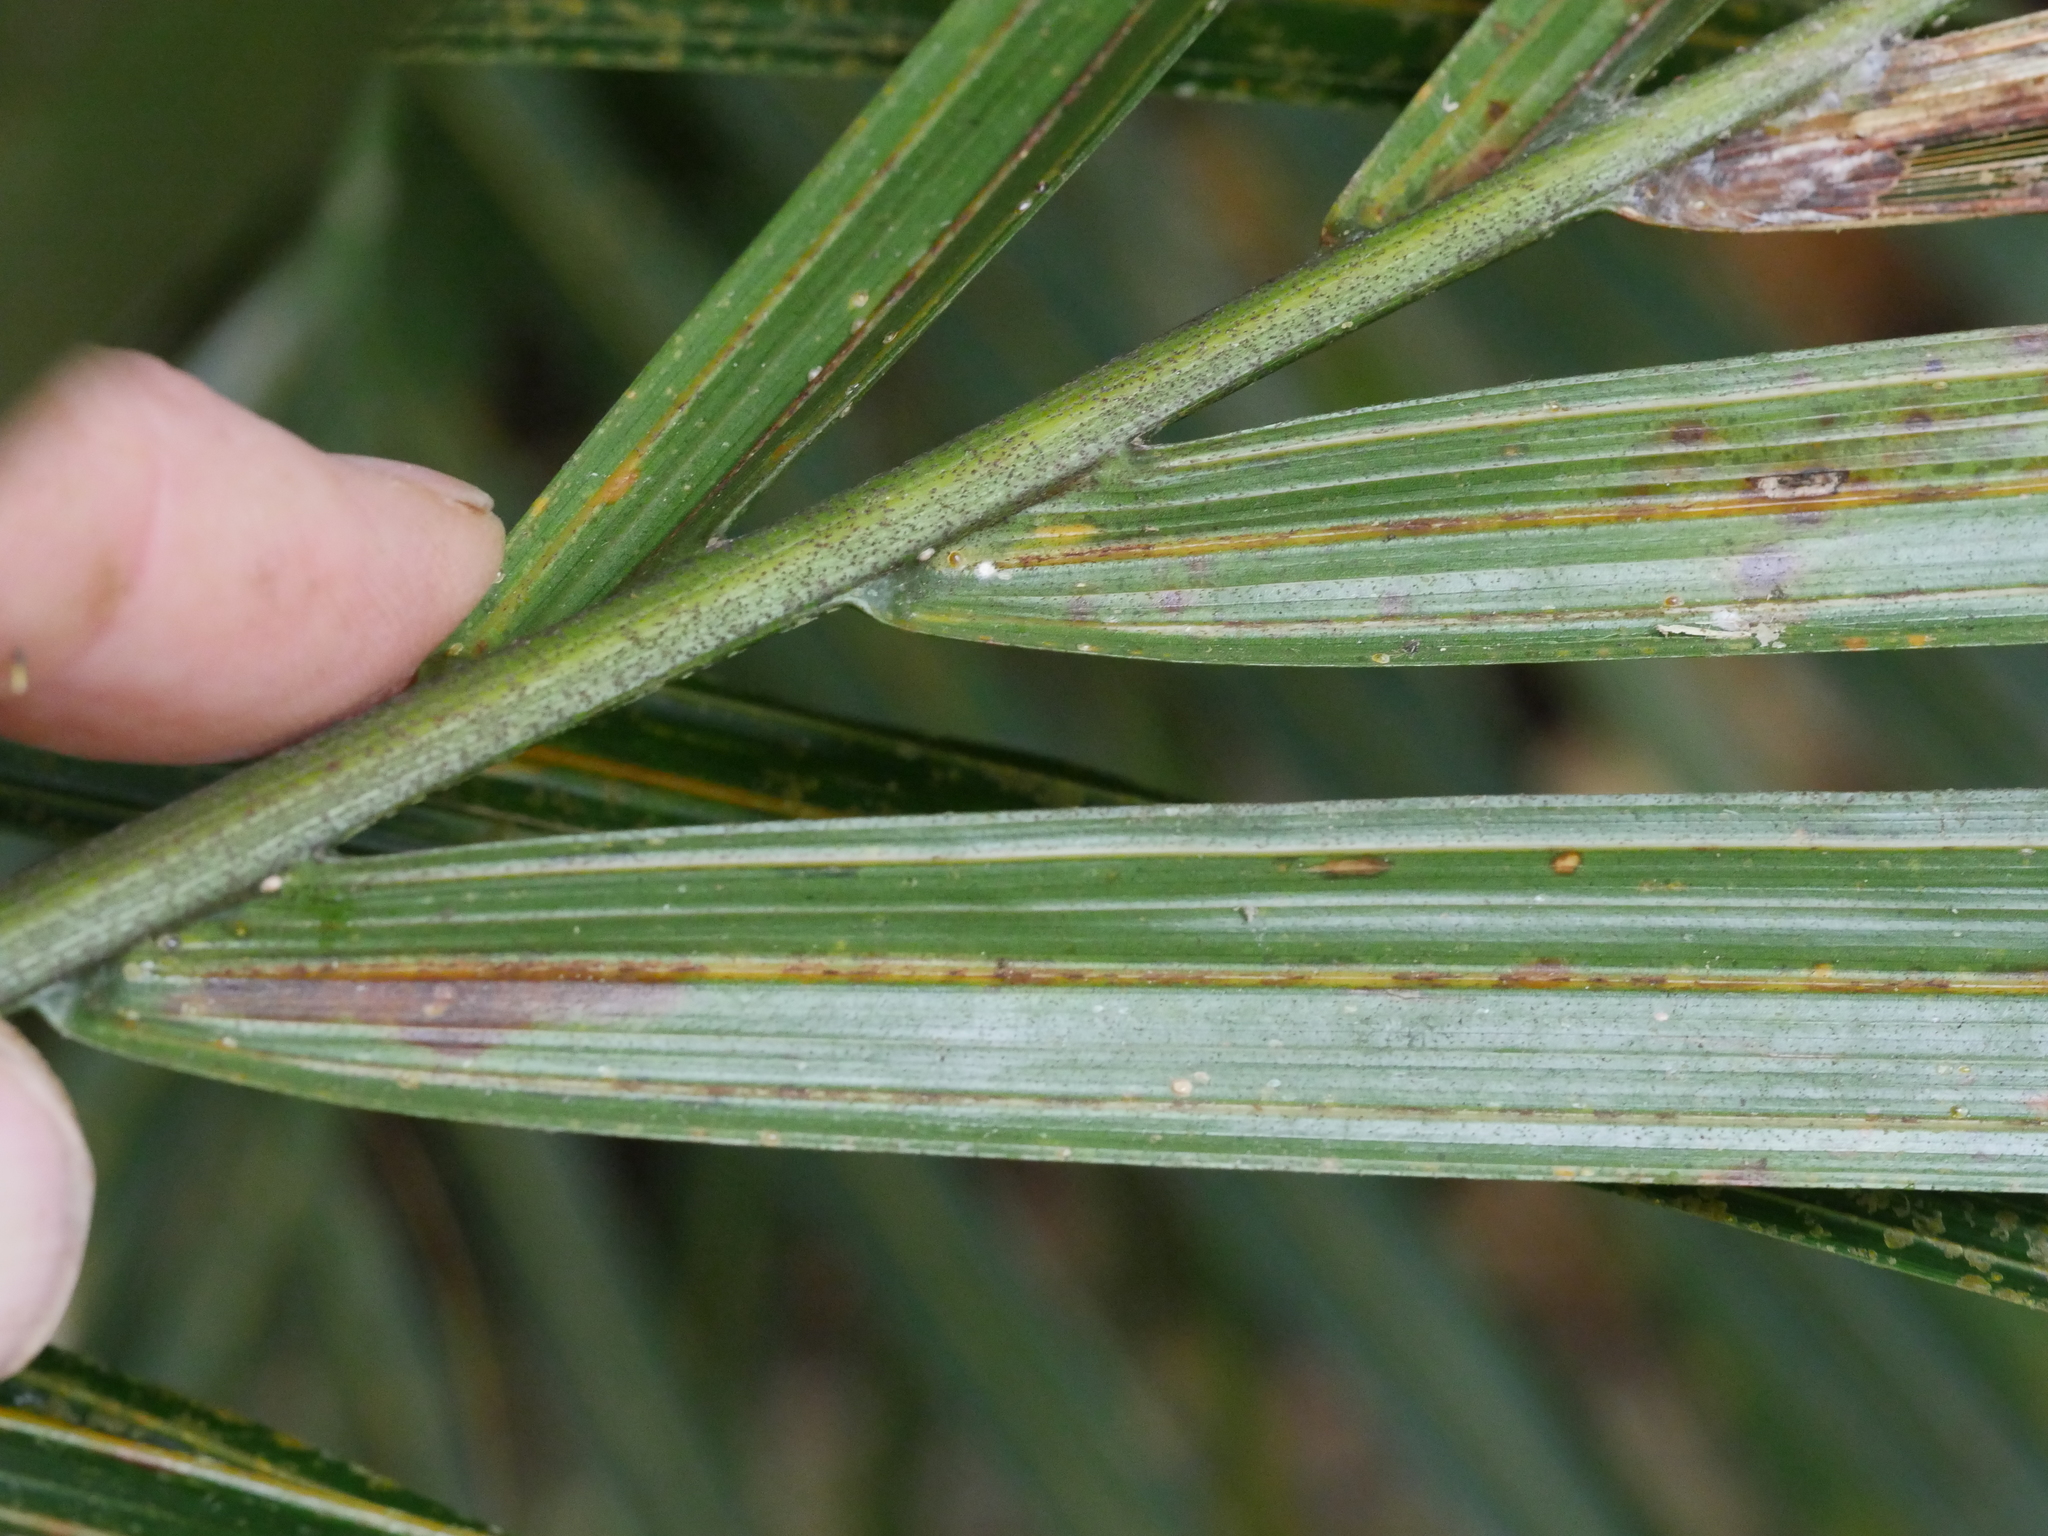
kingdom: Plantae
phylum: Tracheophyta
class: Liliopsida
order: Arecales
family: Arecaceae
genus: Rhopalostylis
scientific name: Rhopalostylis sapida
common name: Feather-duster palm
